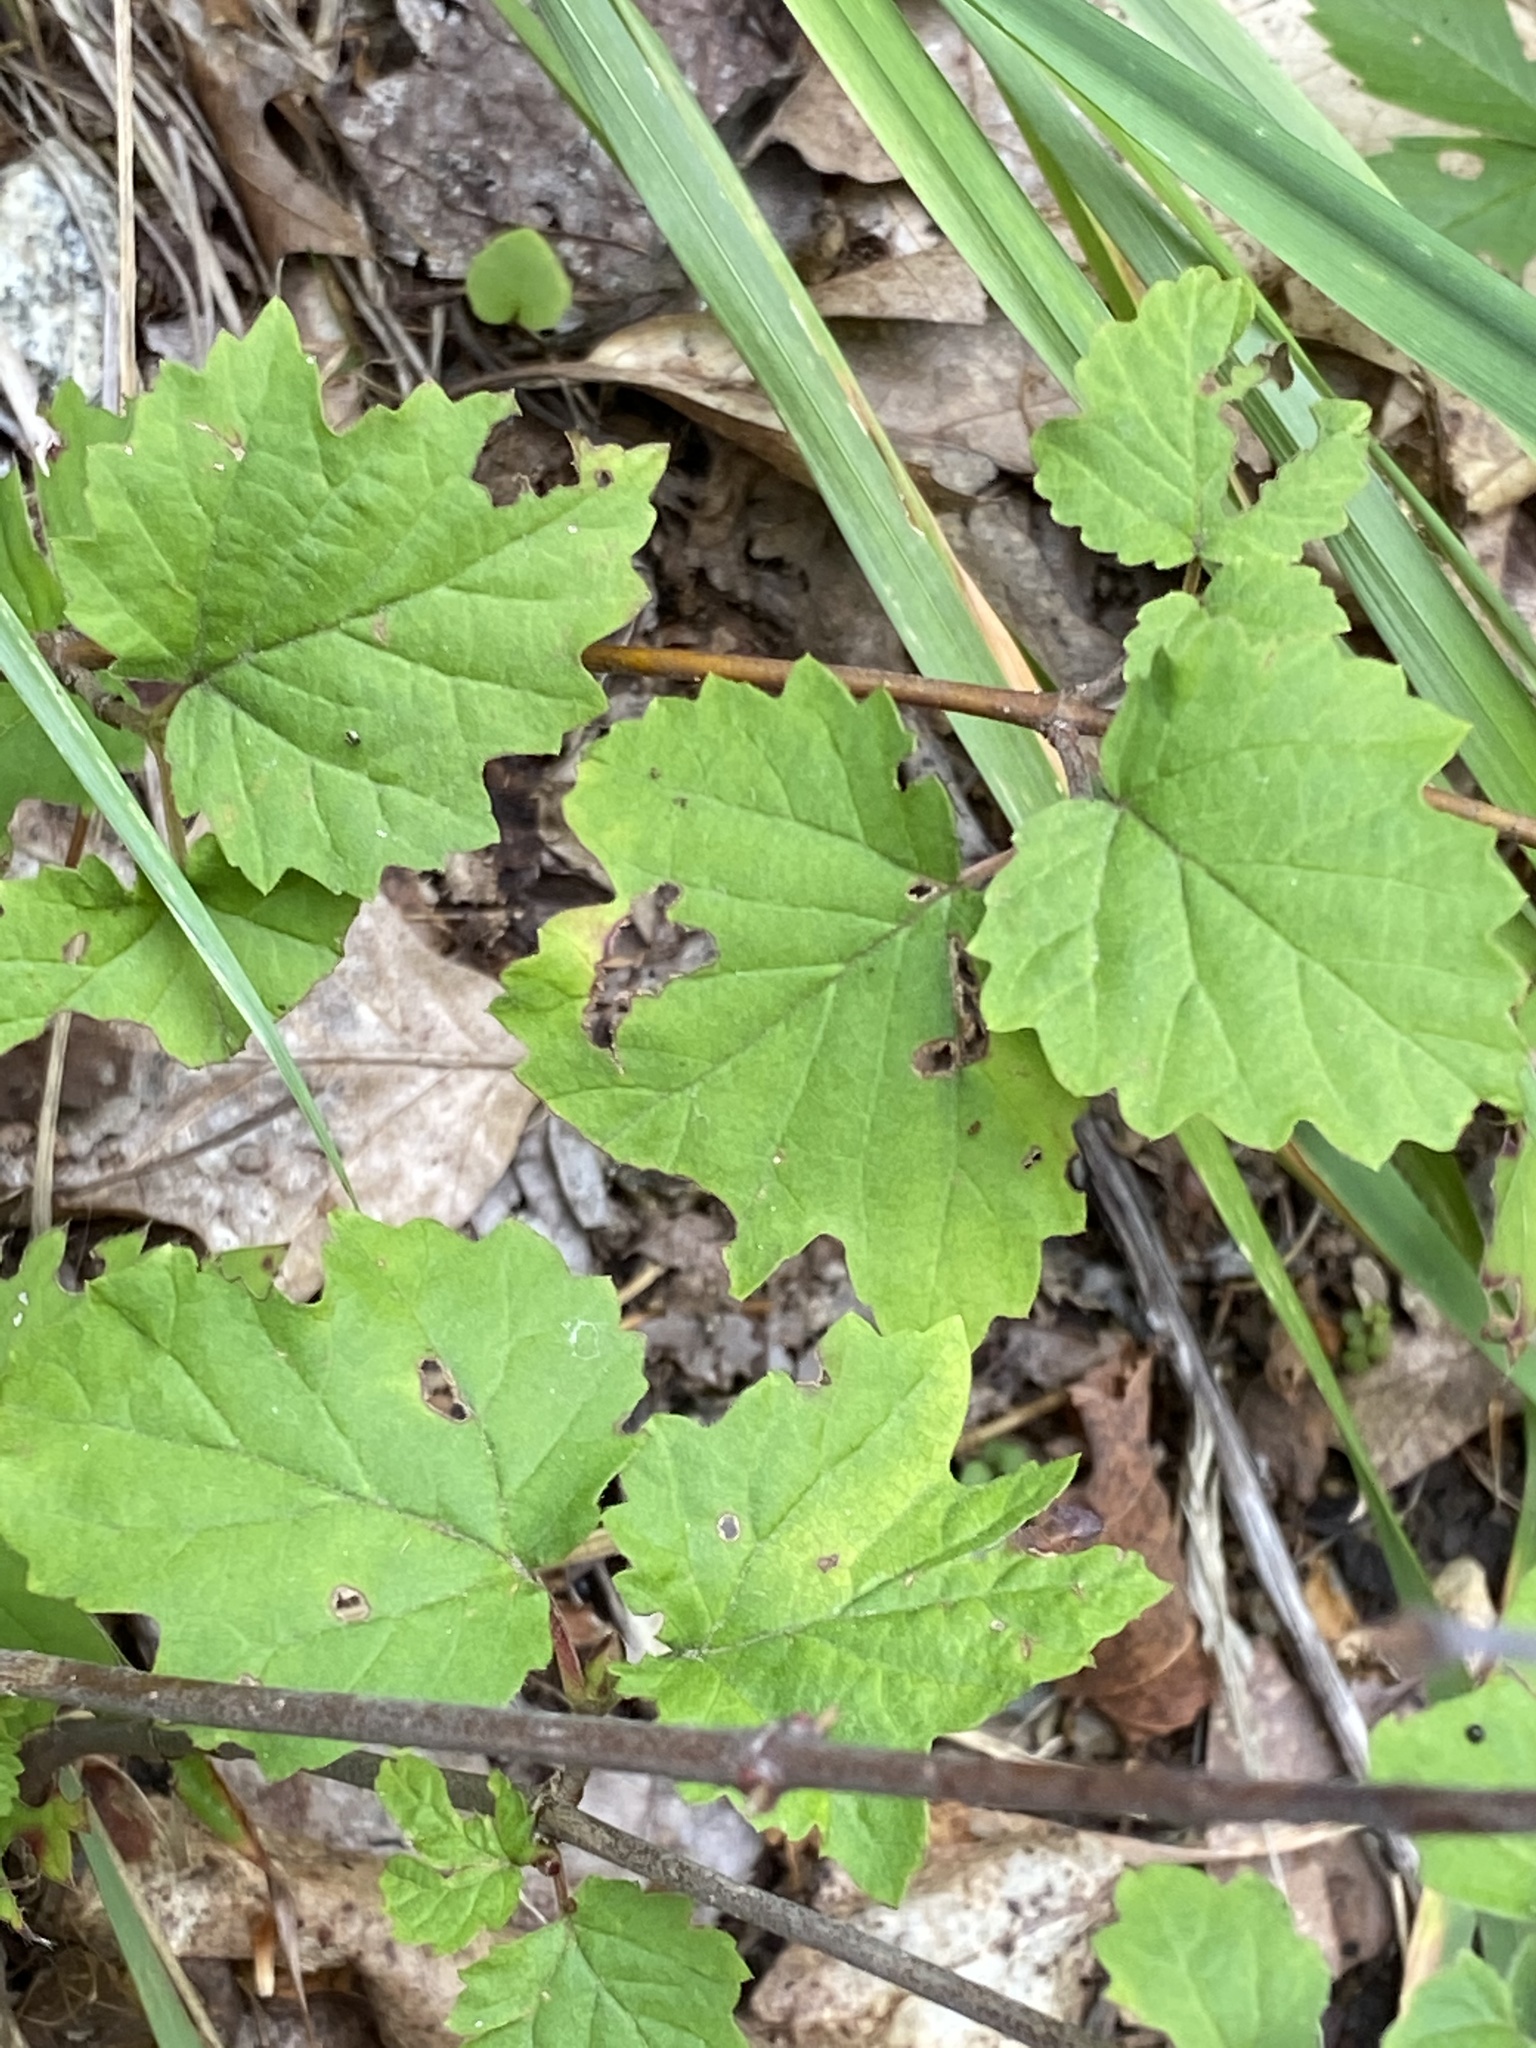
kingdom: Plantae
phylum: Tracheophyta
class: Magnoliopsida
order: Dipsacales
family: Viburnaceae
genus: Viburnum
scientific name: Viburnum acerifolium
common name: Dockmackie
